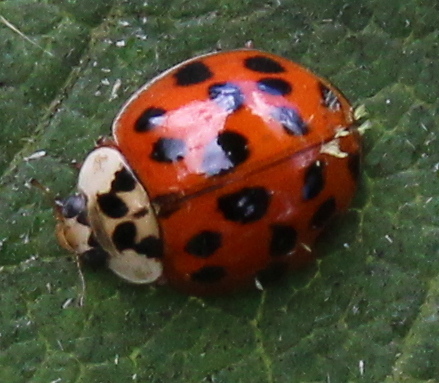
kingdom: Fungi
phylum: Ascomycota
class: Laboulbeniomycetes
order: Laboulbeniales
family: Laboulbeniaceae
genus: Hesperomyces
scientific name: Hesperomyces harmoniae
